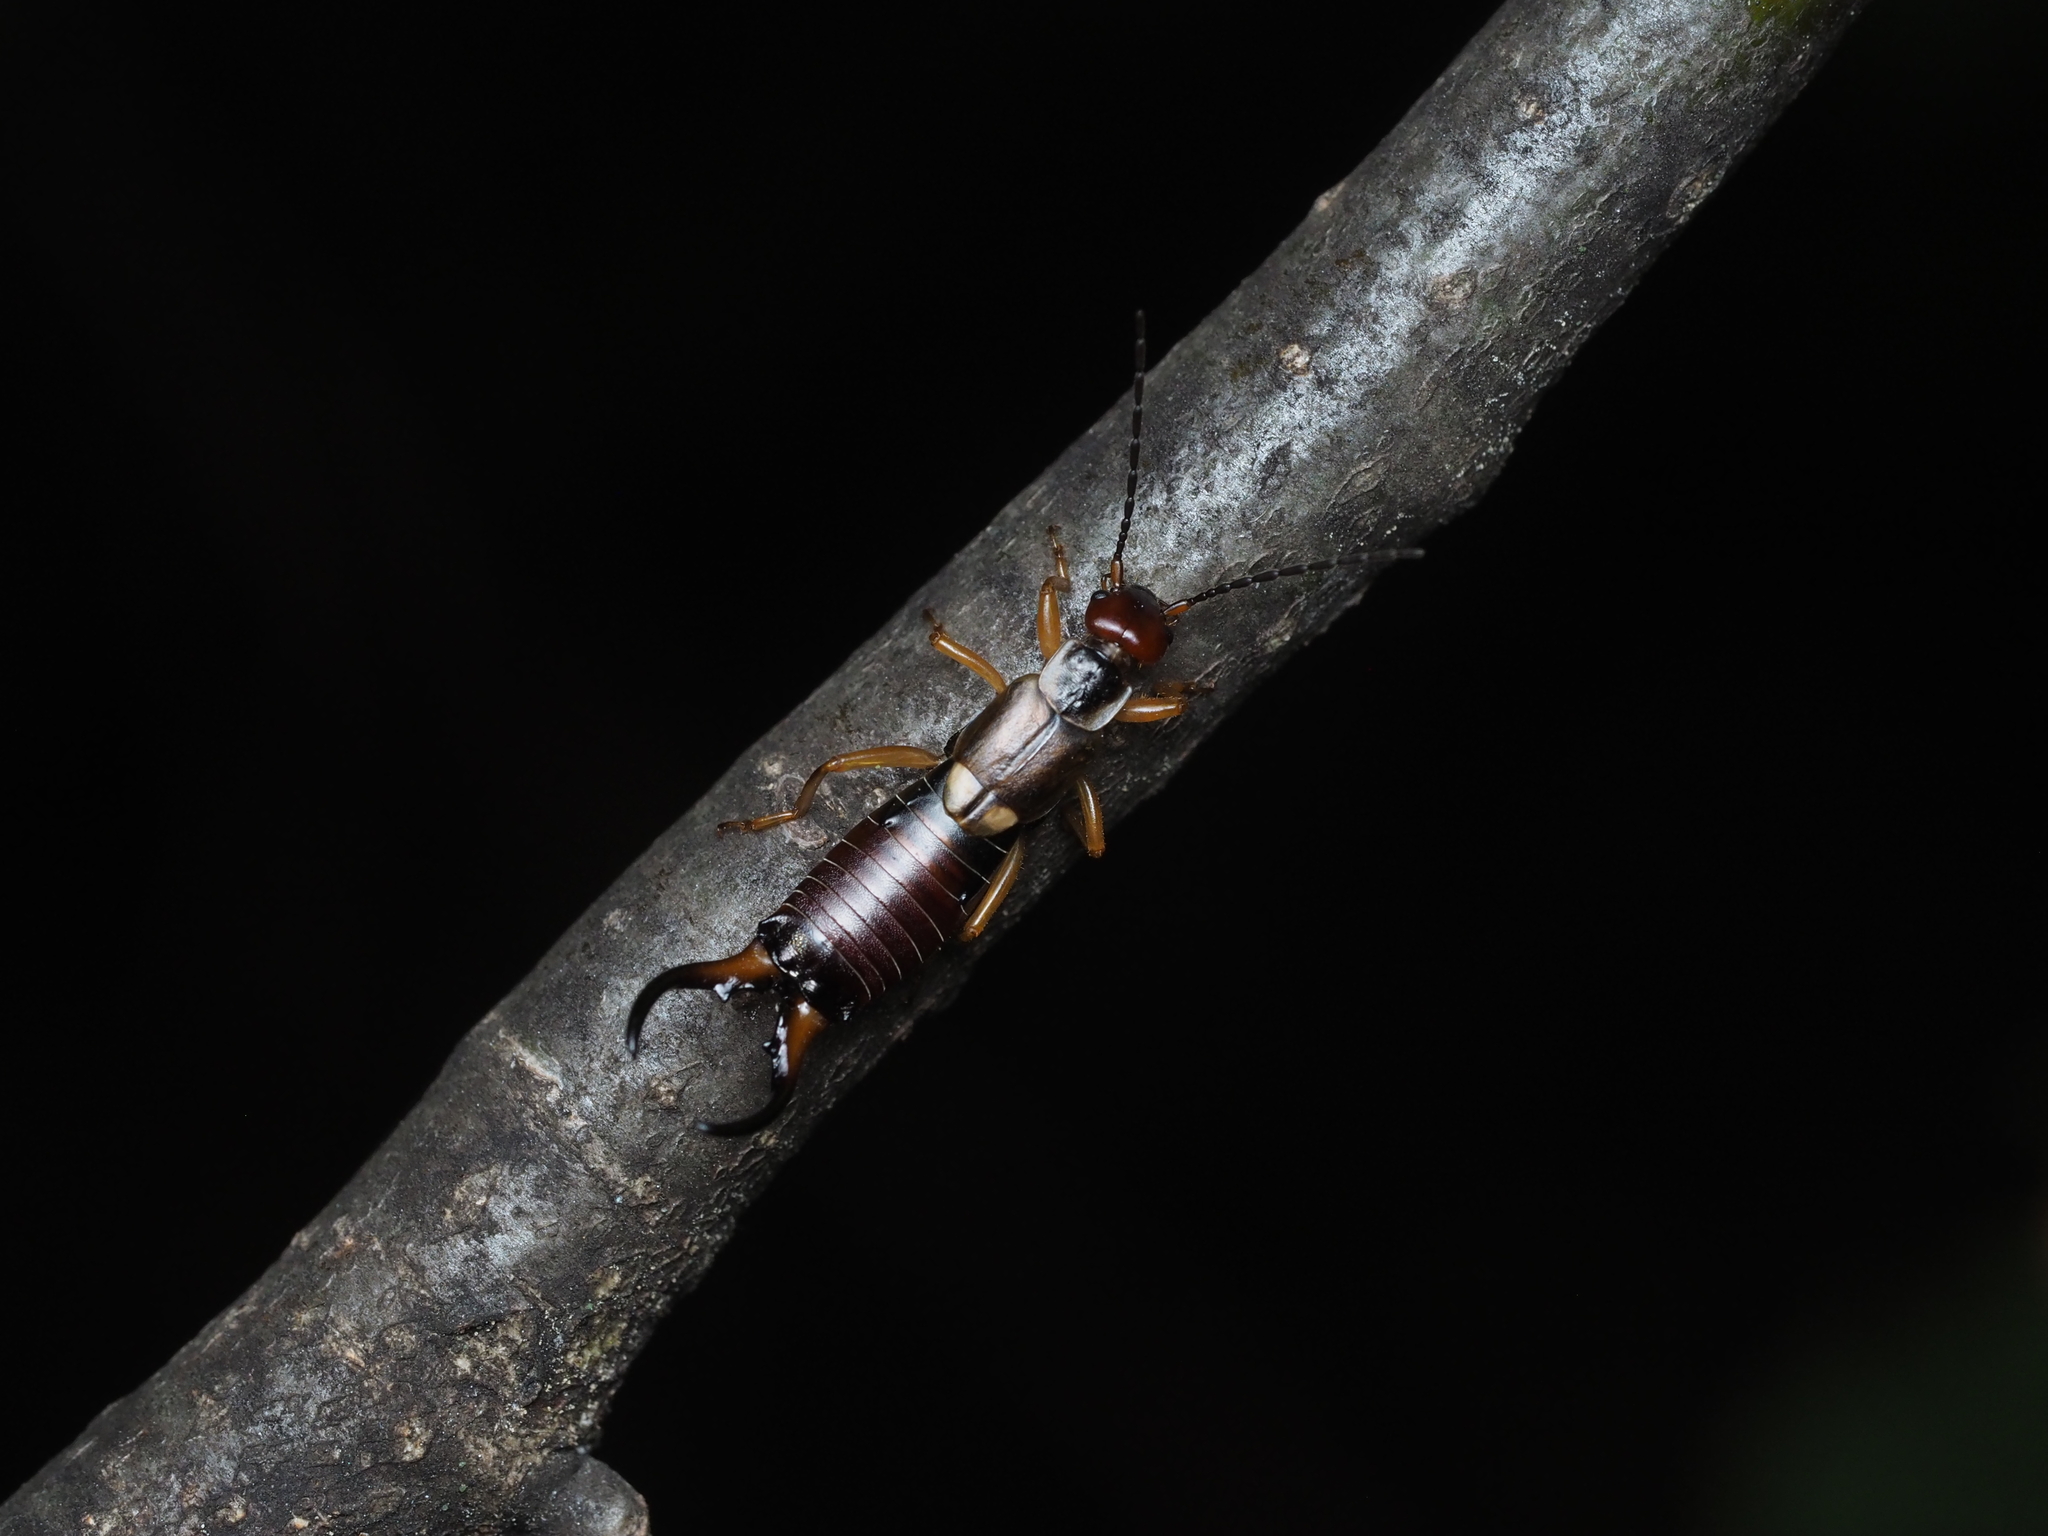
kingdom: Animalia
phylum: Arthropoda
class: Insecta
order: Dermaptera
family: Forficulidae
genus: Forficula
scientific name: Forficula
